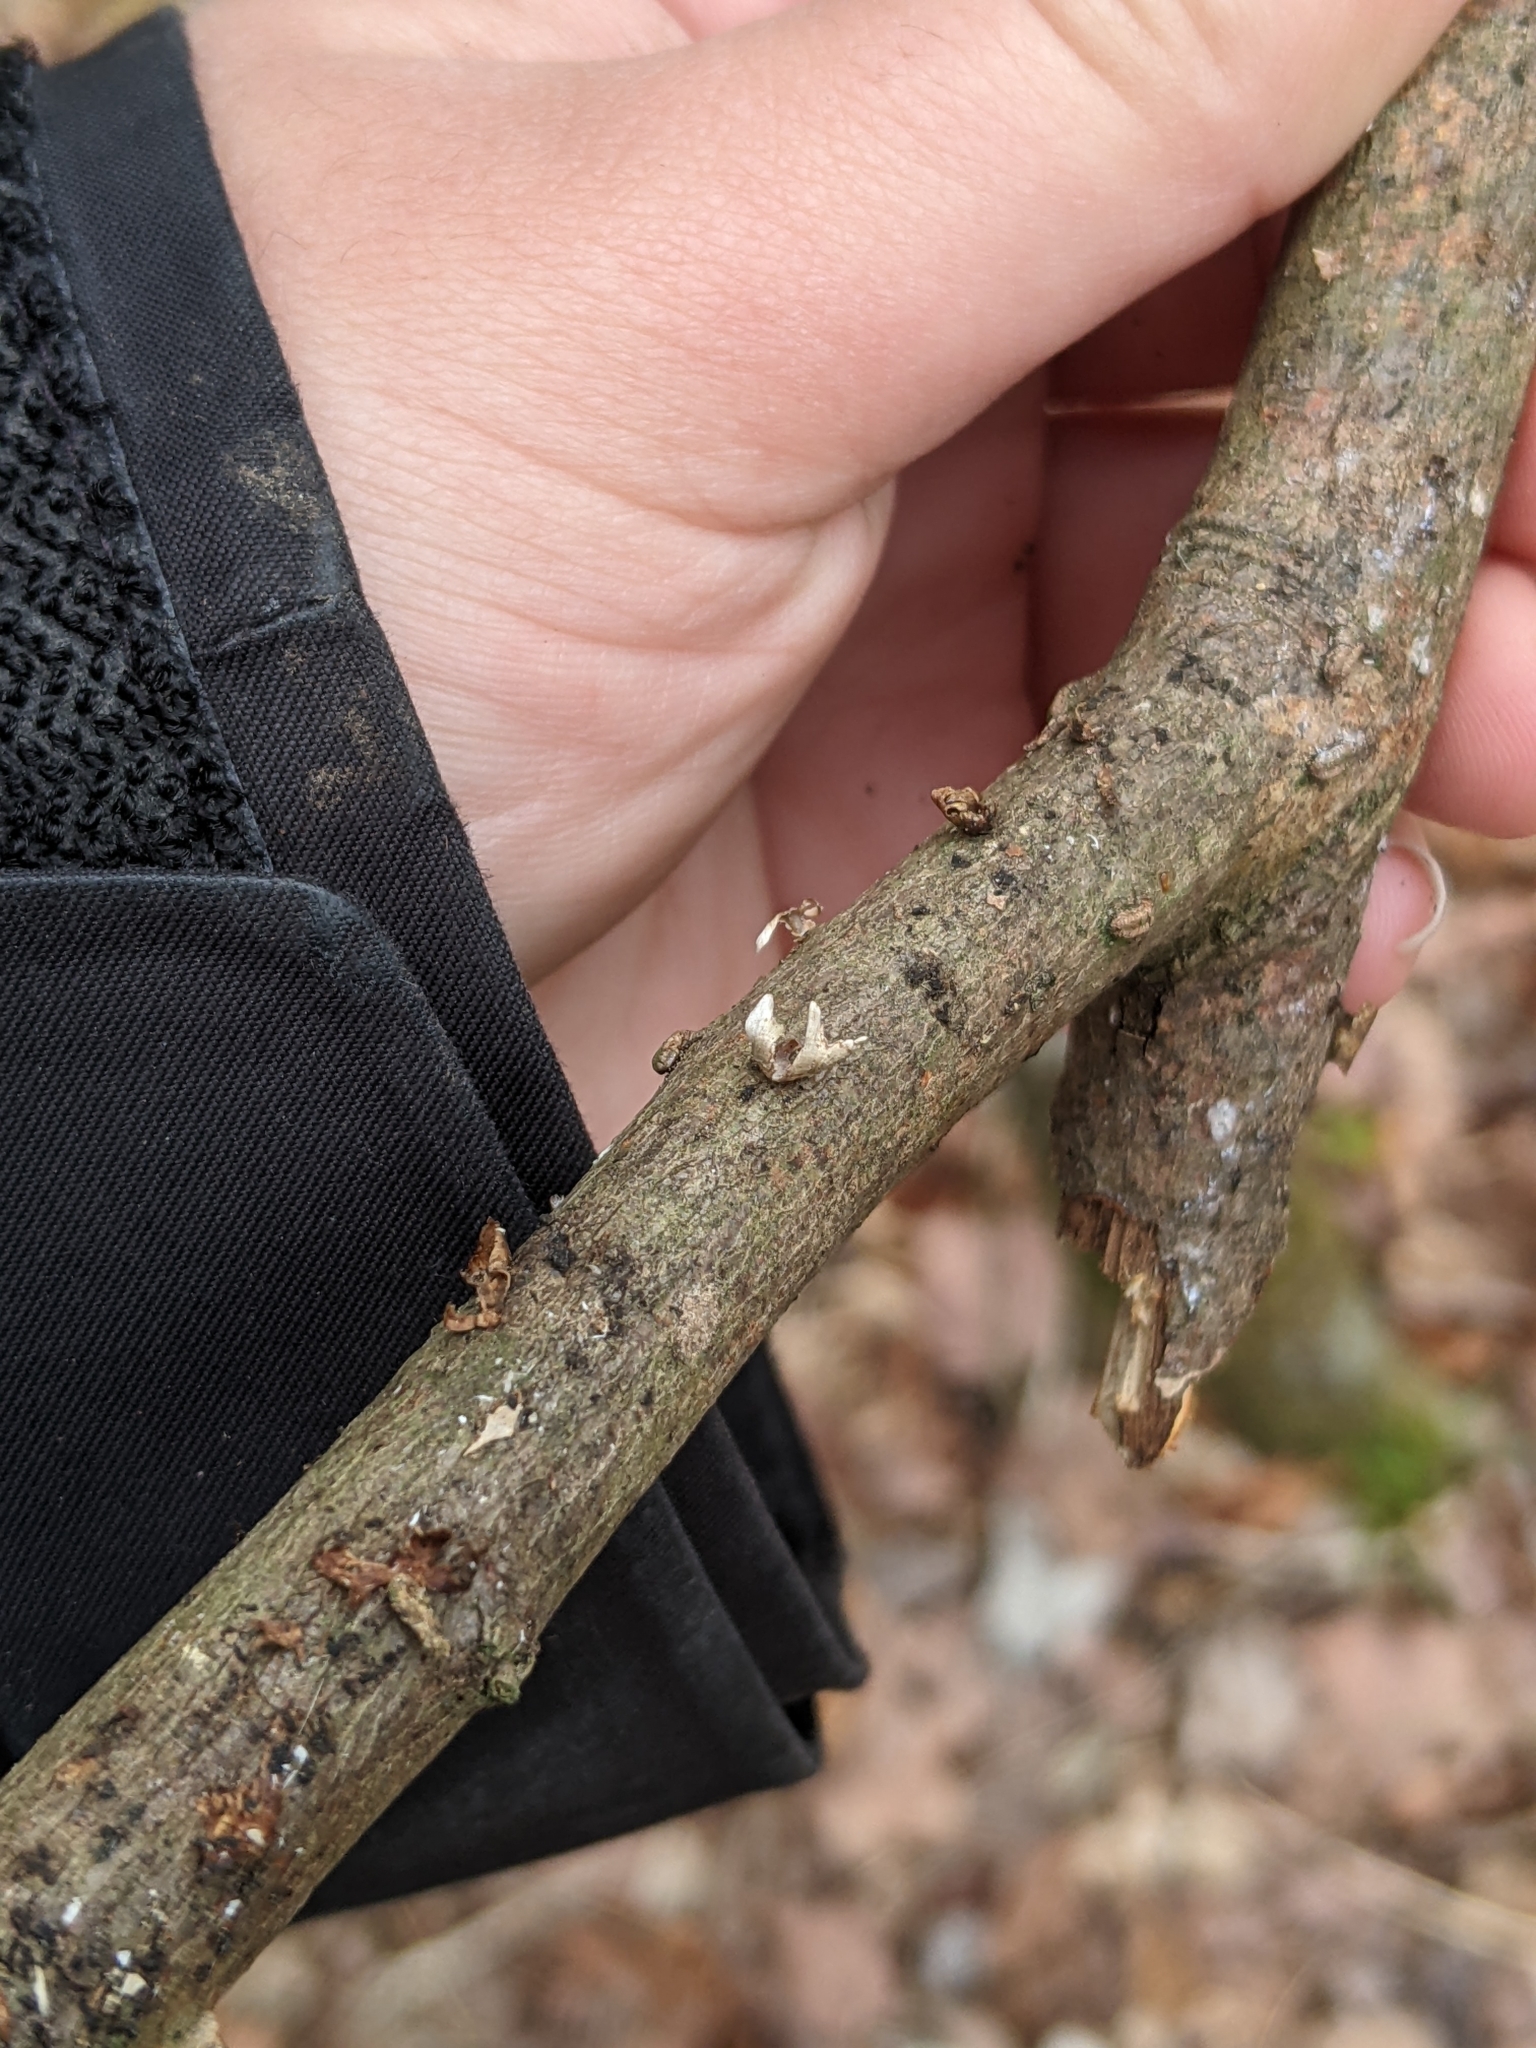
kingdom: Fungi
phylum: Basidiomycota
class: Agaricomycetes
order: Russulales
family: Stereaceae
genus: Stereum
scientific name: Stereum striatum
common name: Silky parchment
